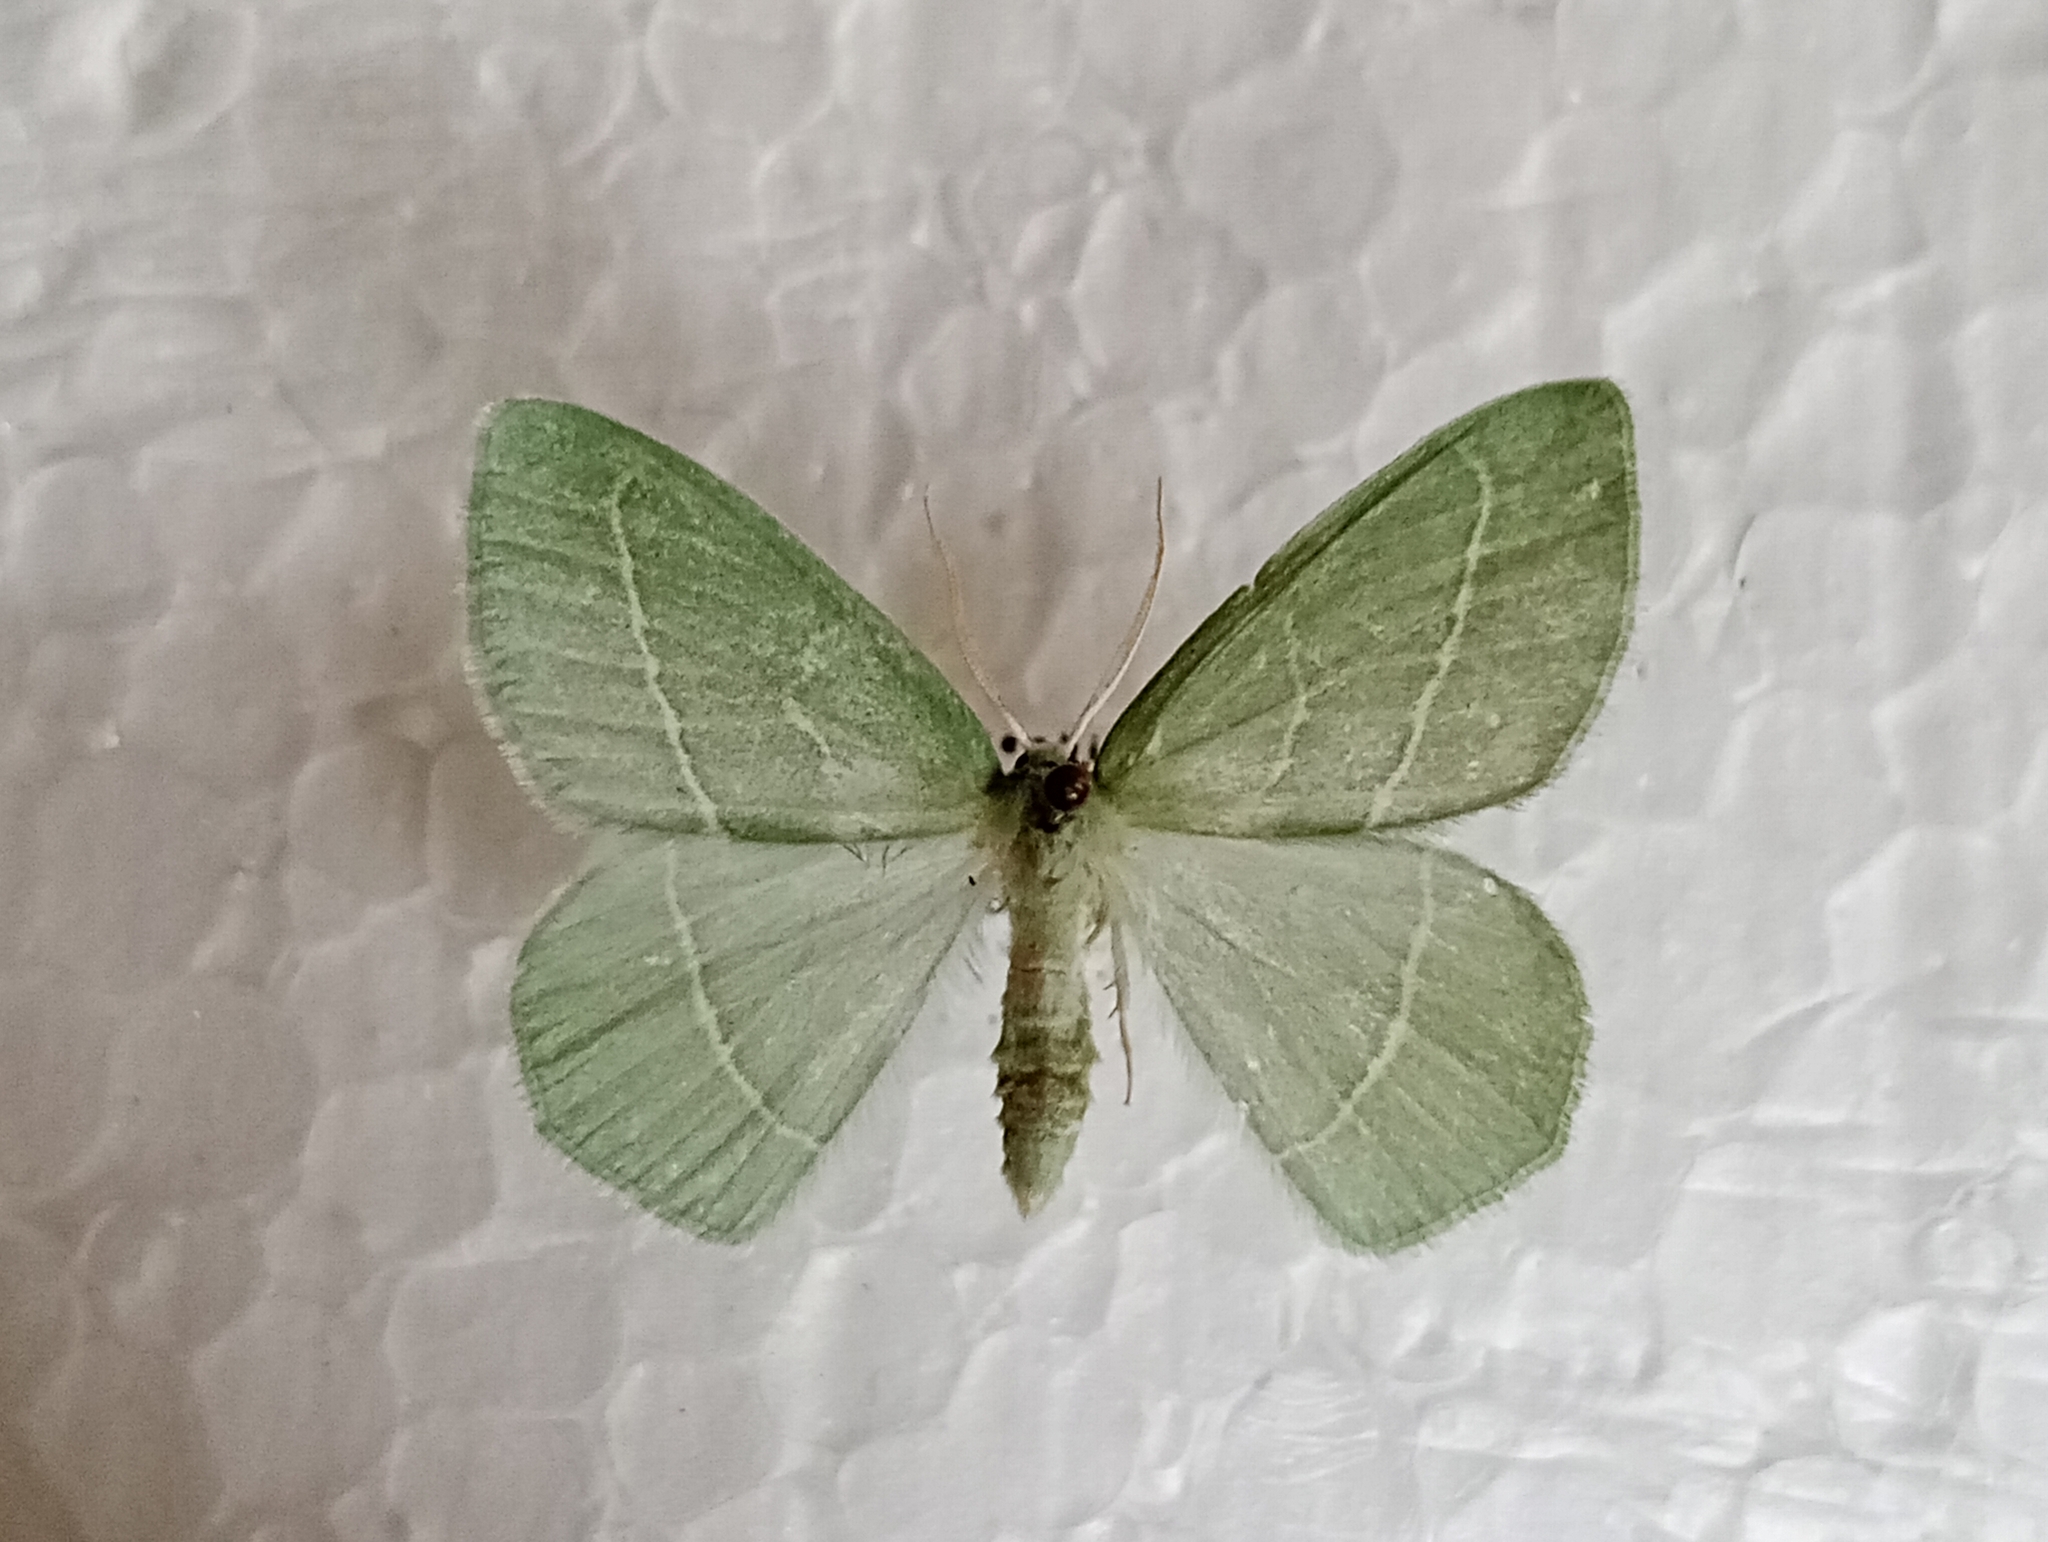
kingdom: Animalia
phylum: Arthropoda
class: Insecta
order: Lepidoptera
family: Geometridae
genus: Hemistola
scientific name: Hemistola chrysoprasaria
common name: Small emerald
